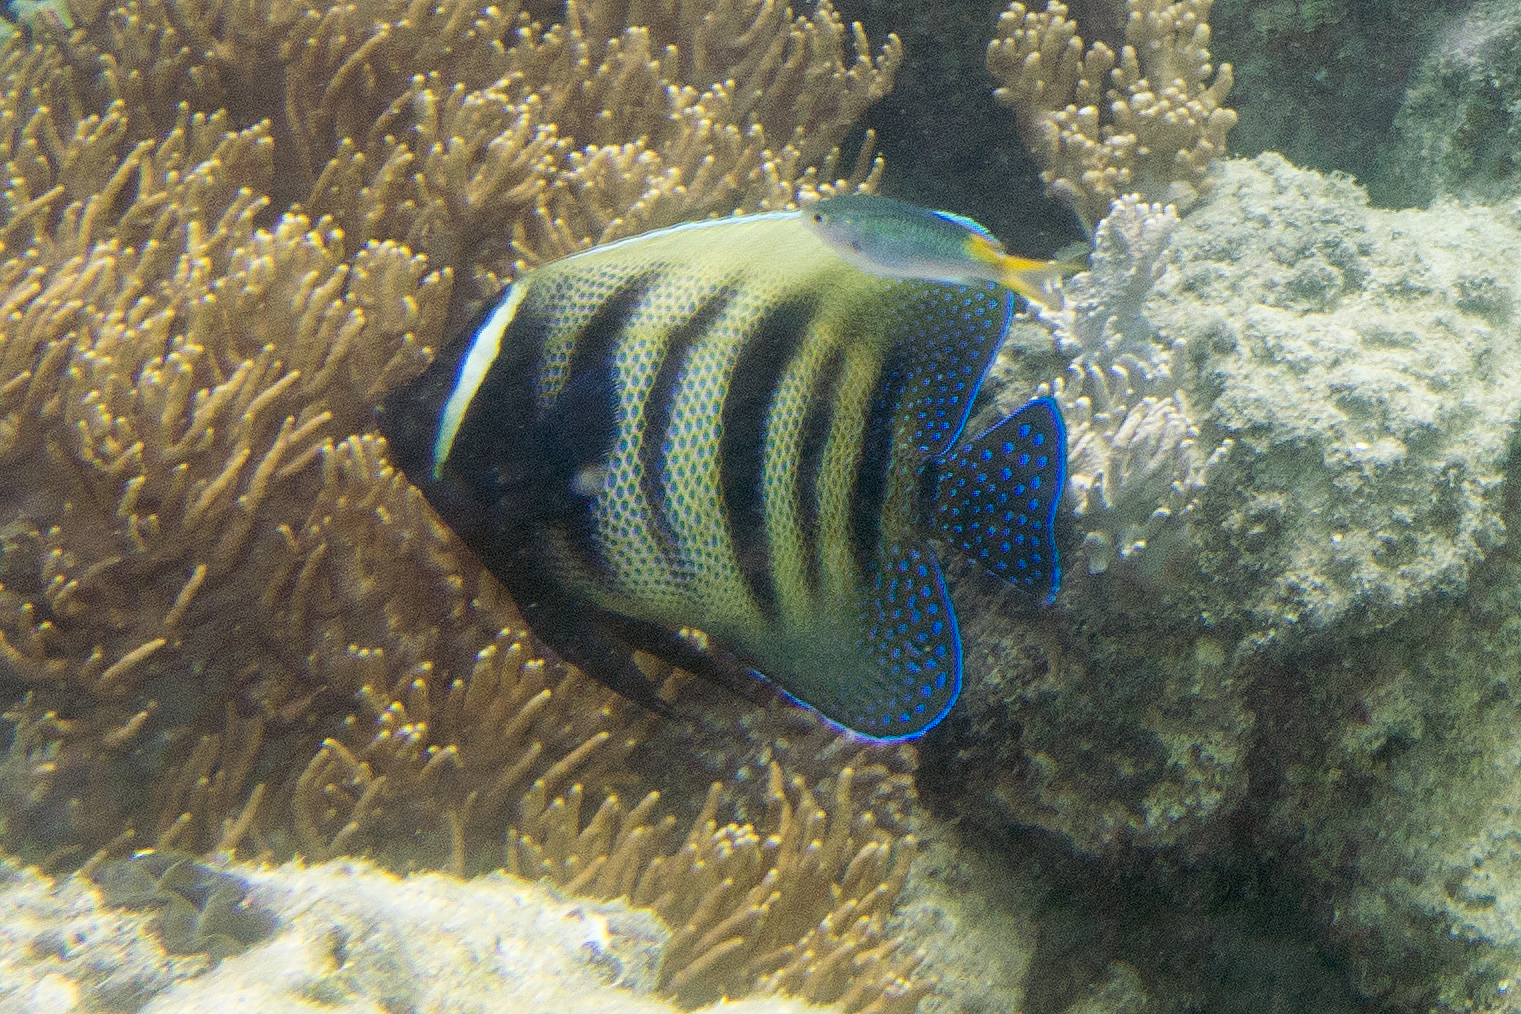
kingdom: Animalia
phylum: Chordata
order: Perciformes
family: Pomacanthidae
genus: Pomacanthus
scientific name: Pomacanthus sexstriatus
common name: Six-banded angelfish
